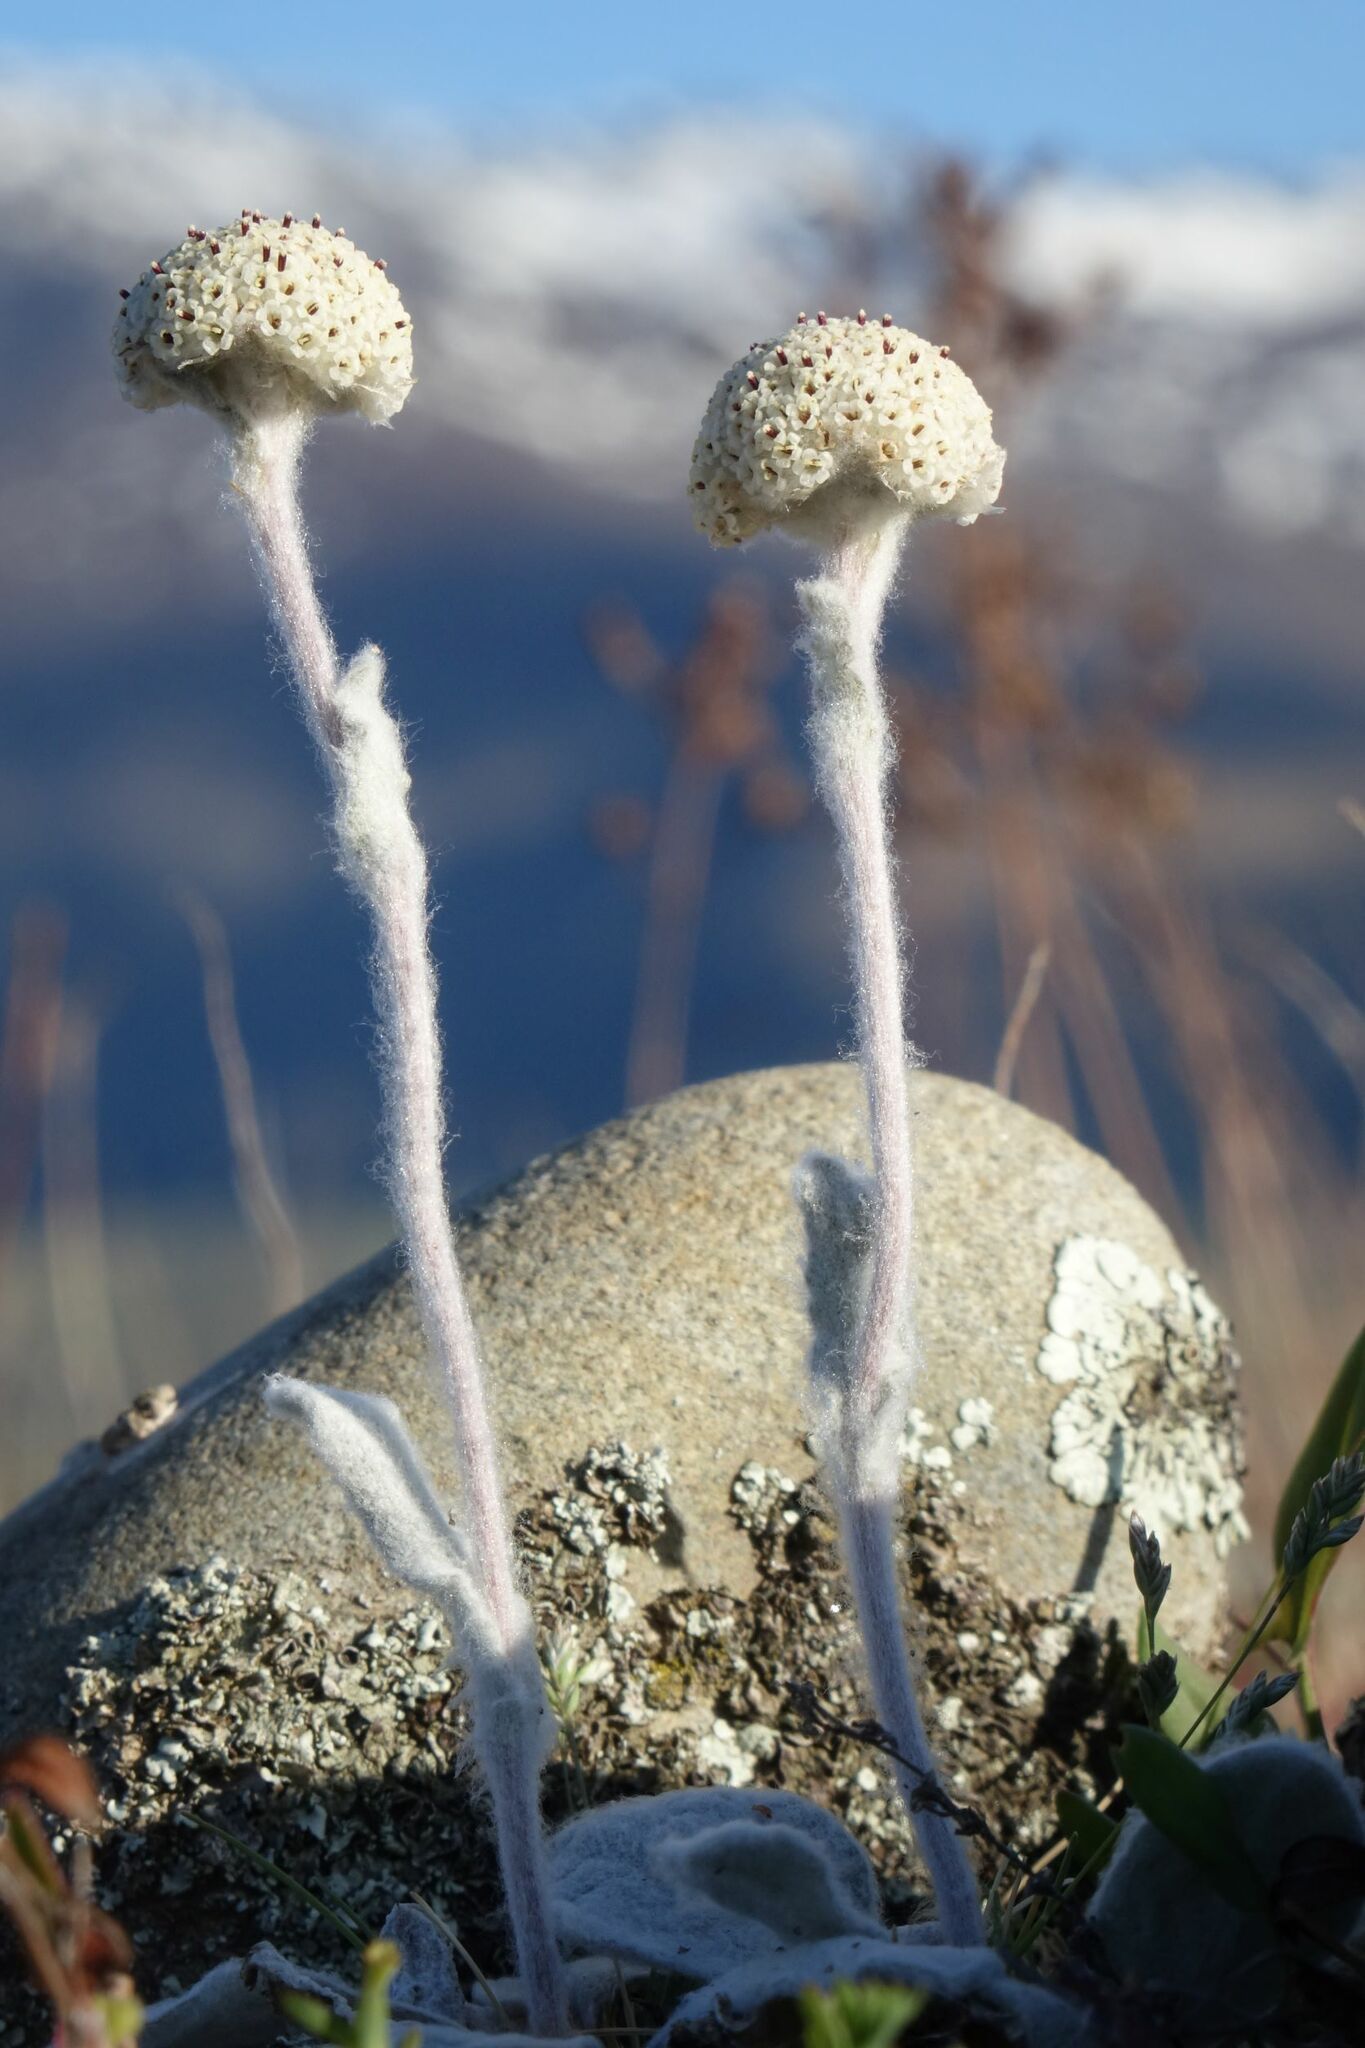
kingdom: Plantae
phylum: Tracheophyta
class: Magnoliopsida
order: Asterales
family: Asteraceae
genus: Craspedia
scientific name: Craspedia
